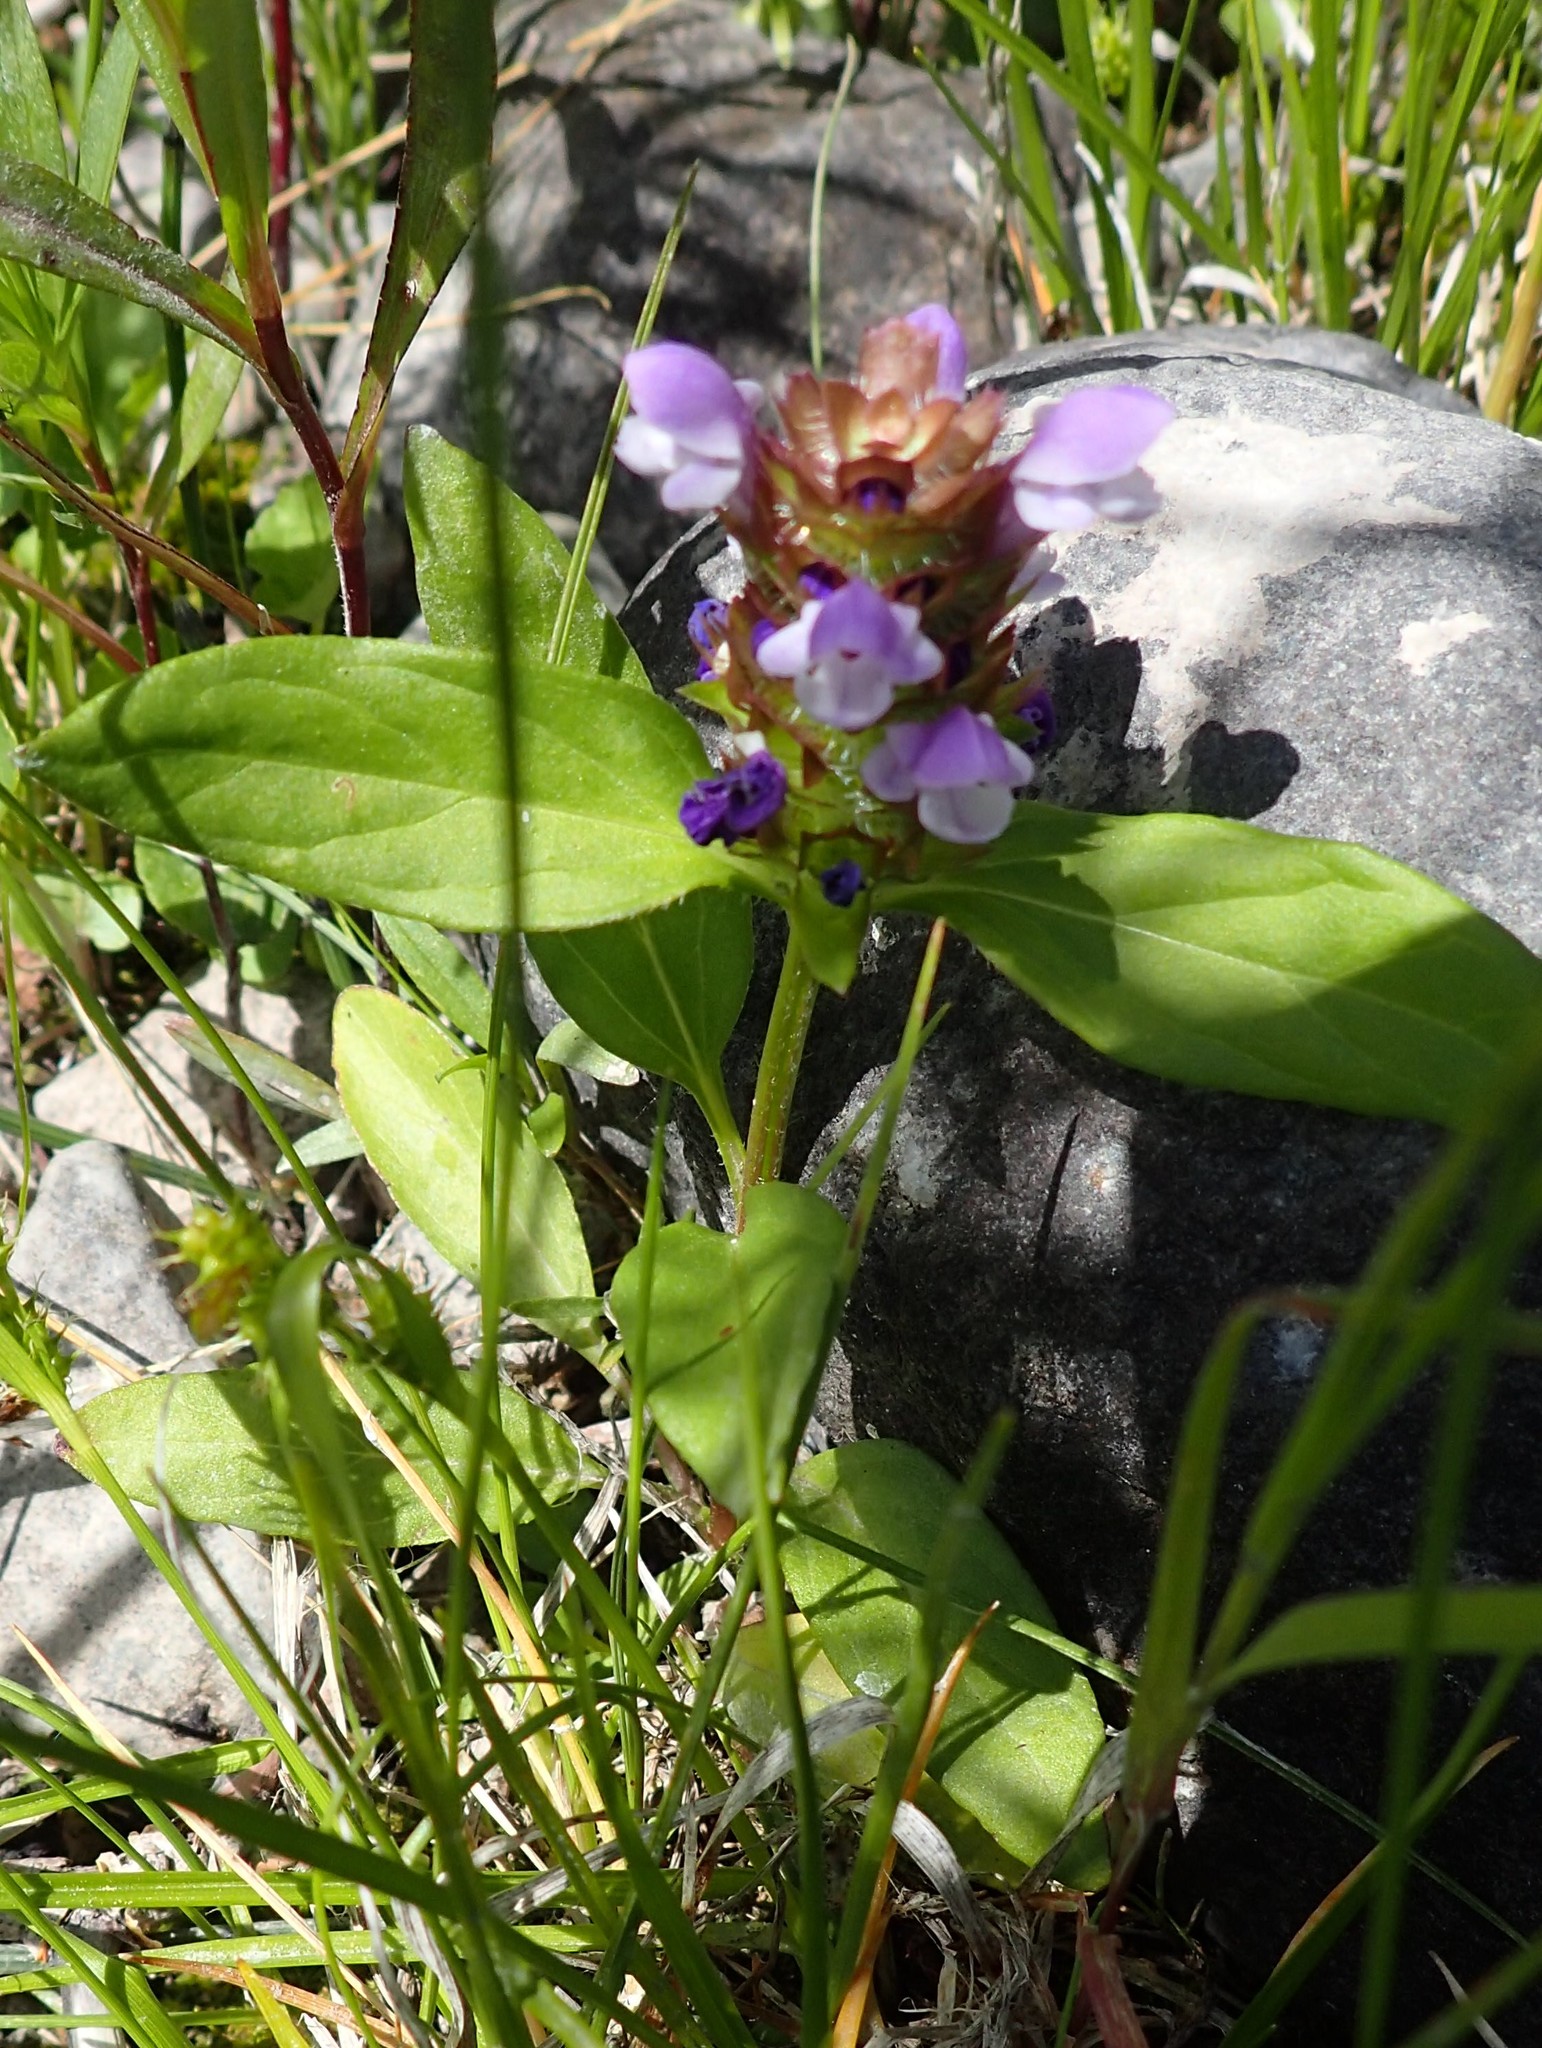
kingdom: Plantae
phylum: Tracheophyta
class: Magnoliopsida
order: Lamiales
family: Lamiaceae
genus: Prunella
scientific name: Prunella vulgaris
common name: Heal-all
